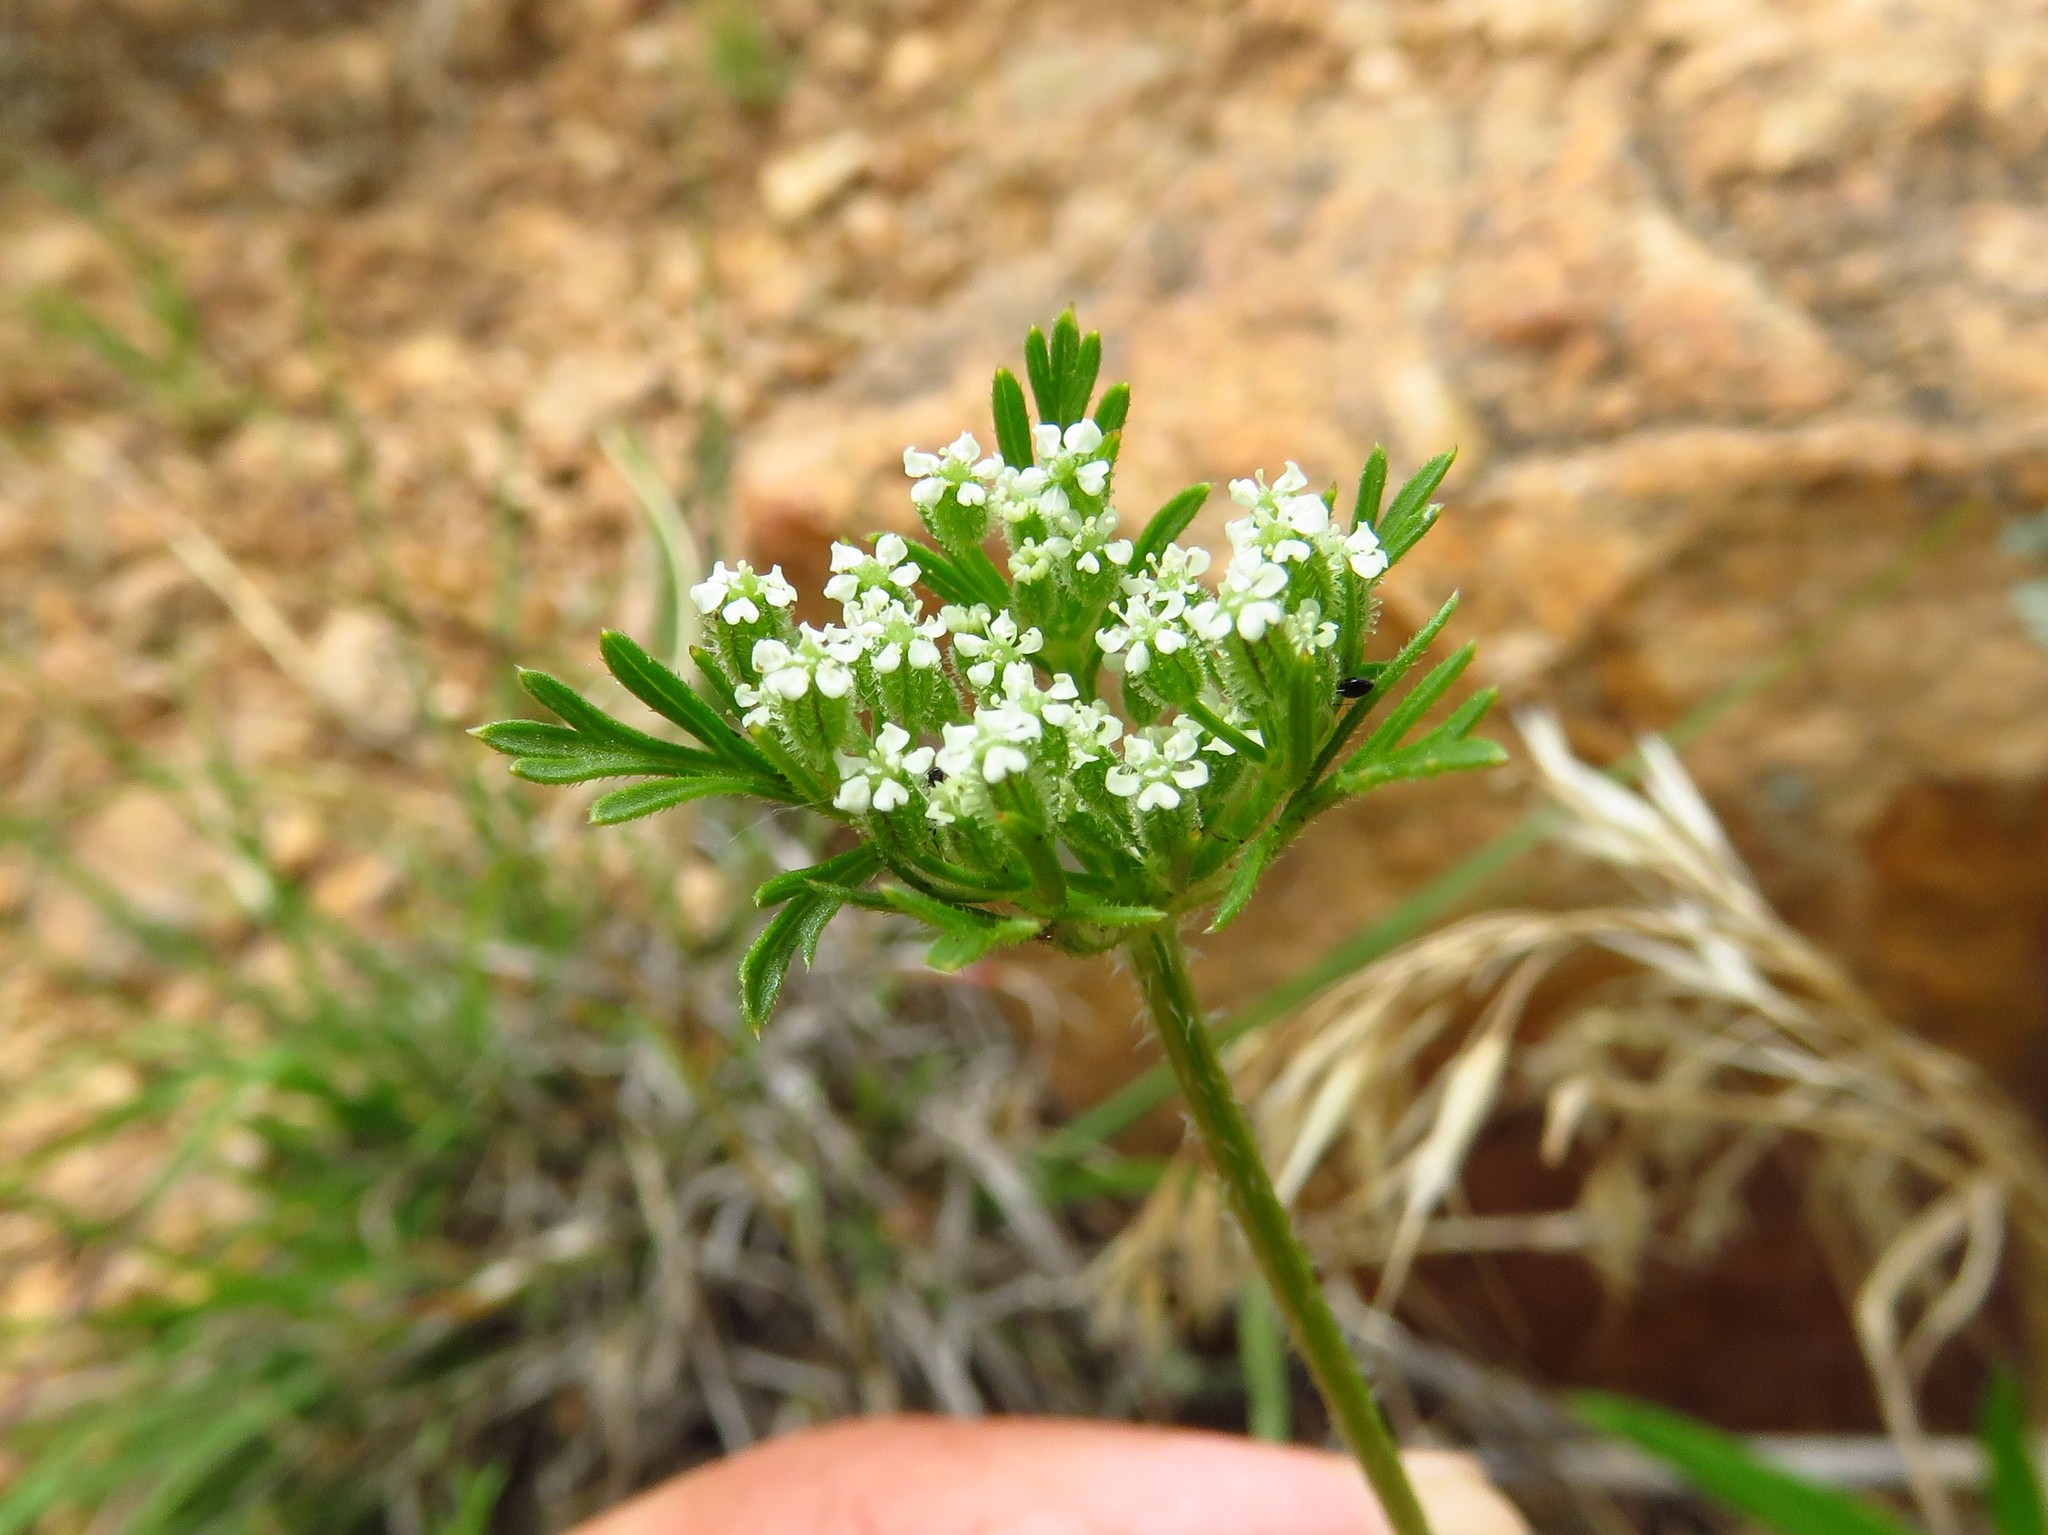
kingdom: Plantae
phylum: Tracheophyta
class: Magnoliopsida
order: Apiales
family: Apiaceae
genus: Daucus
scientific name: Daucus pusillus
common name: Southwest wild carrot
